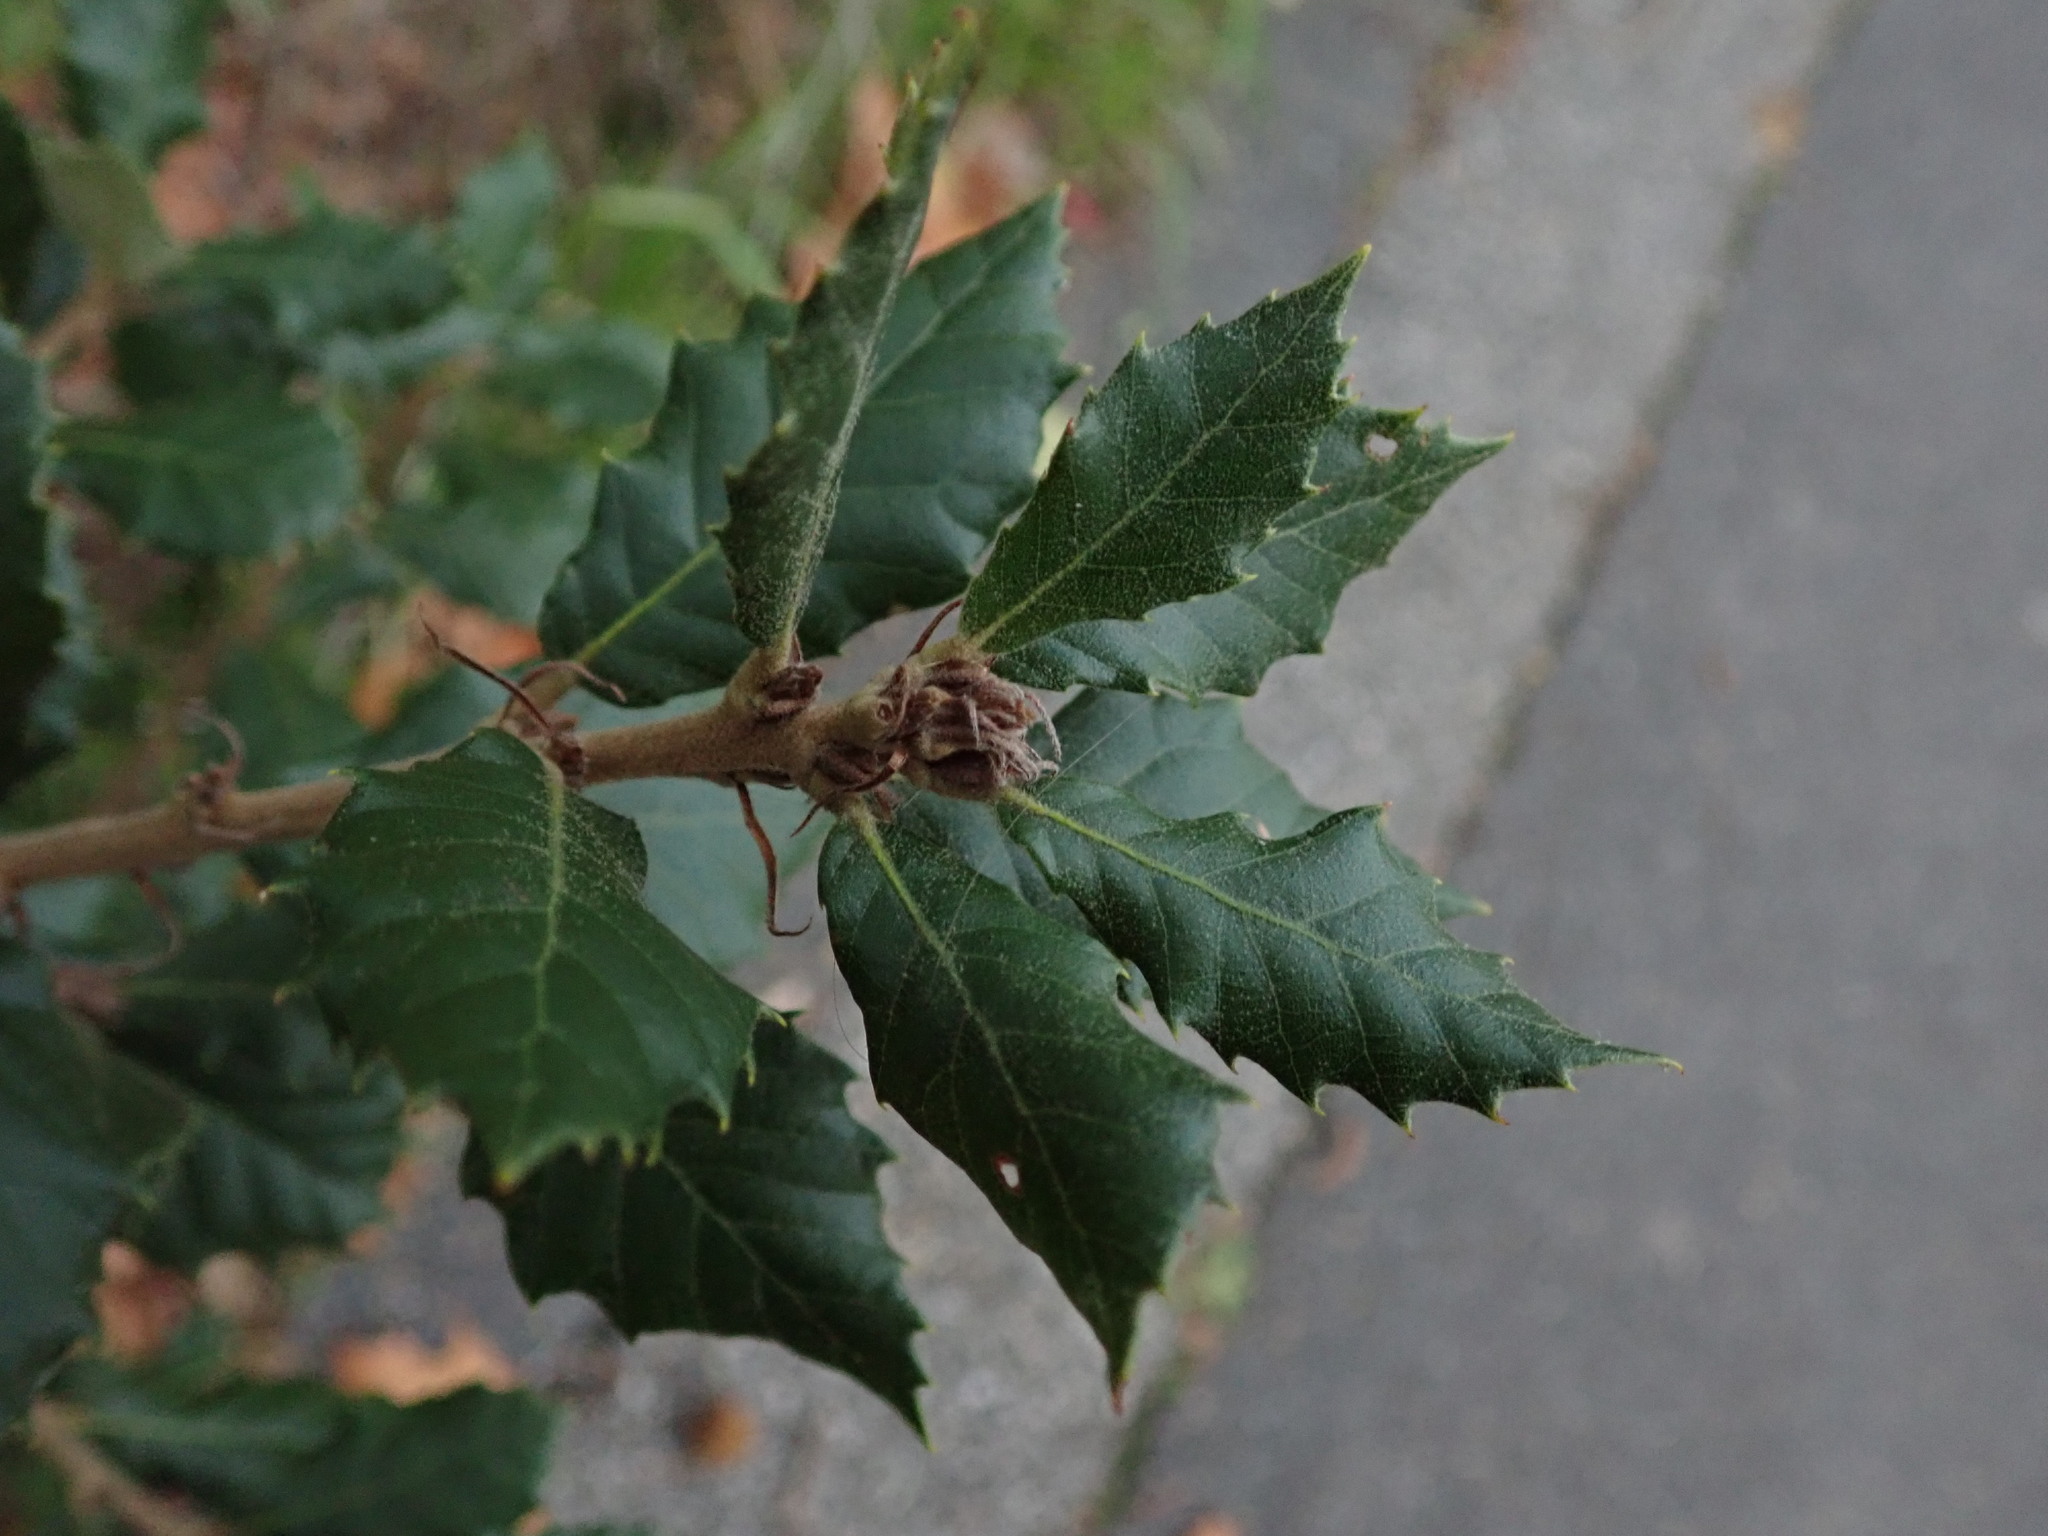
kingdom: Plantae
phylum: Tracheophyta
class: Magnoliopsida
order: Fagales
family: Fagaceae
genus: Quercus
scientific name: Quercus ilex
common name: Evergreen oak
